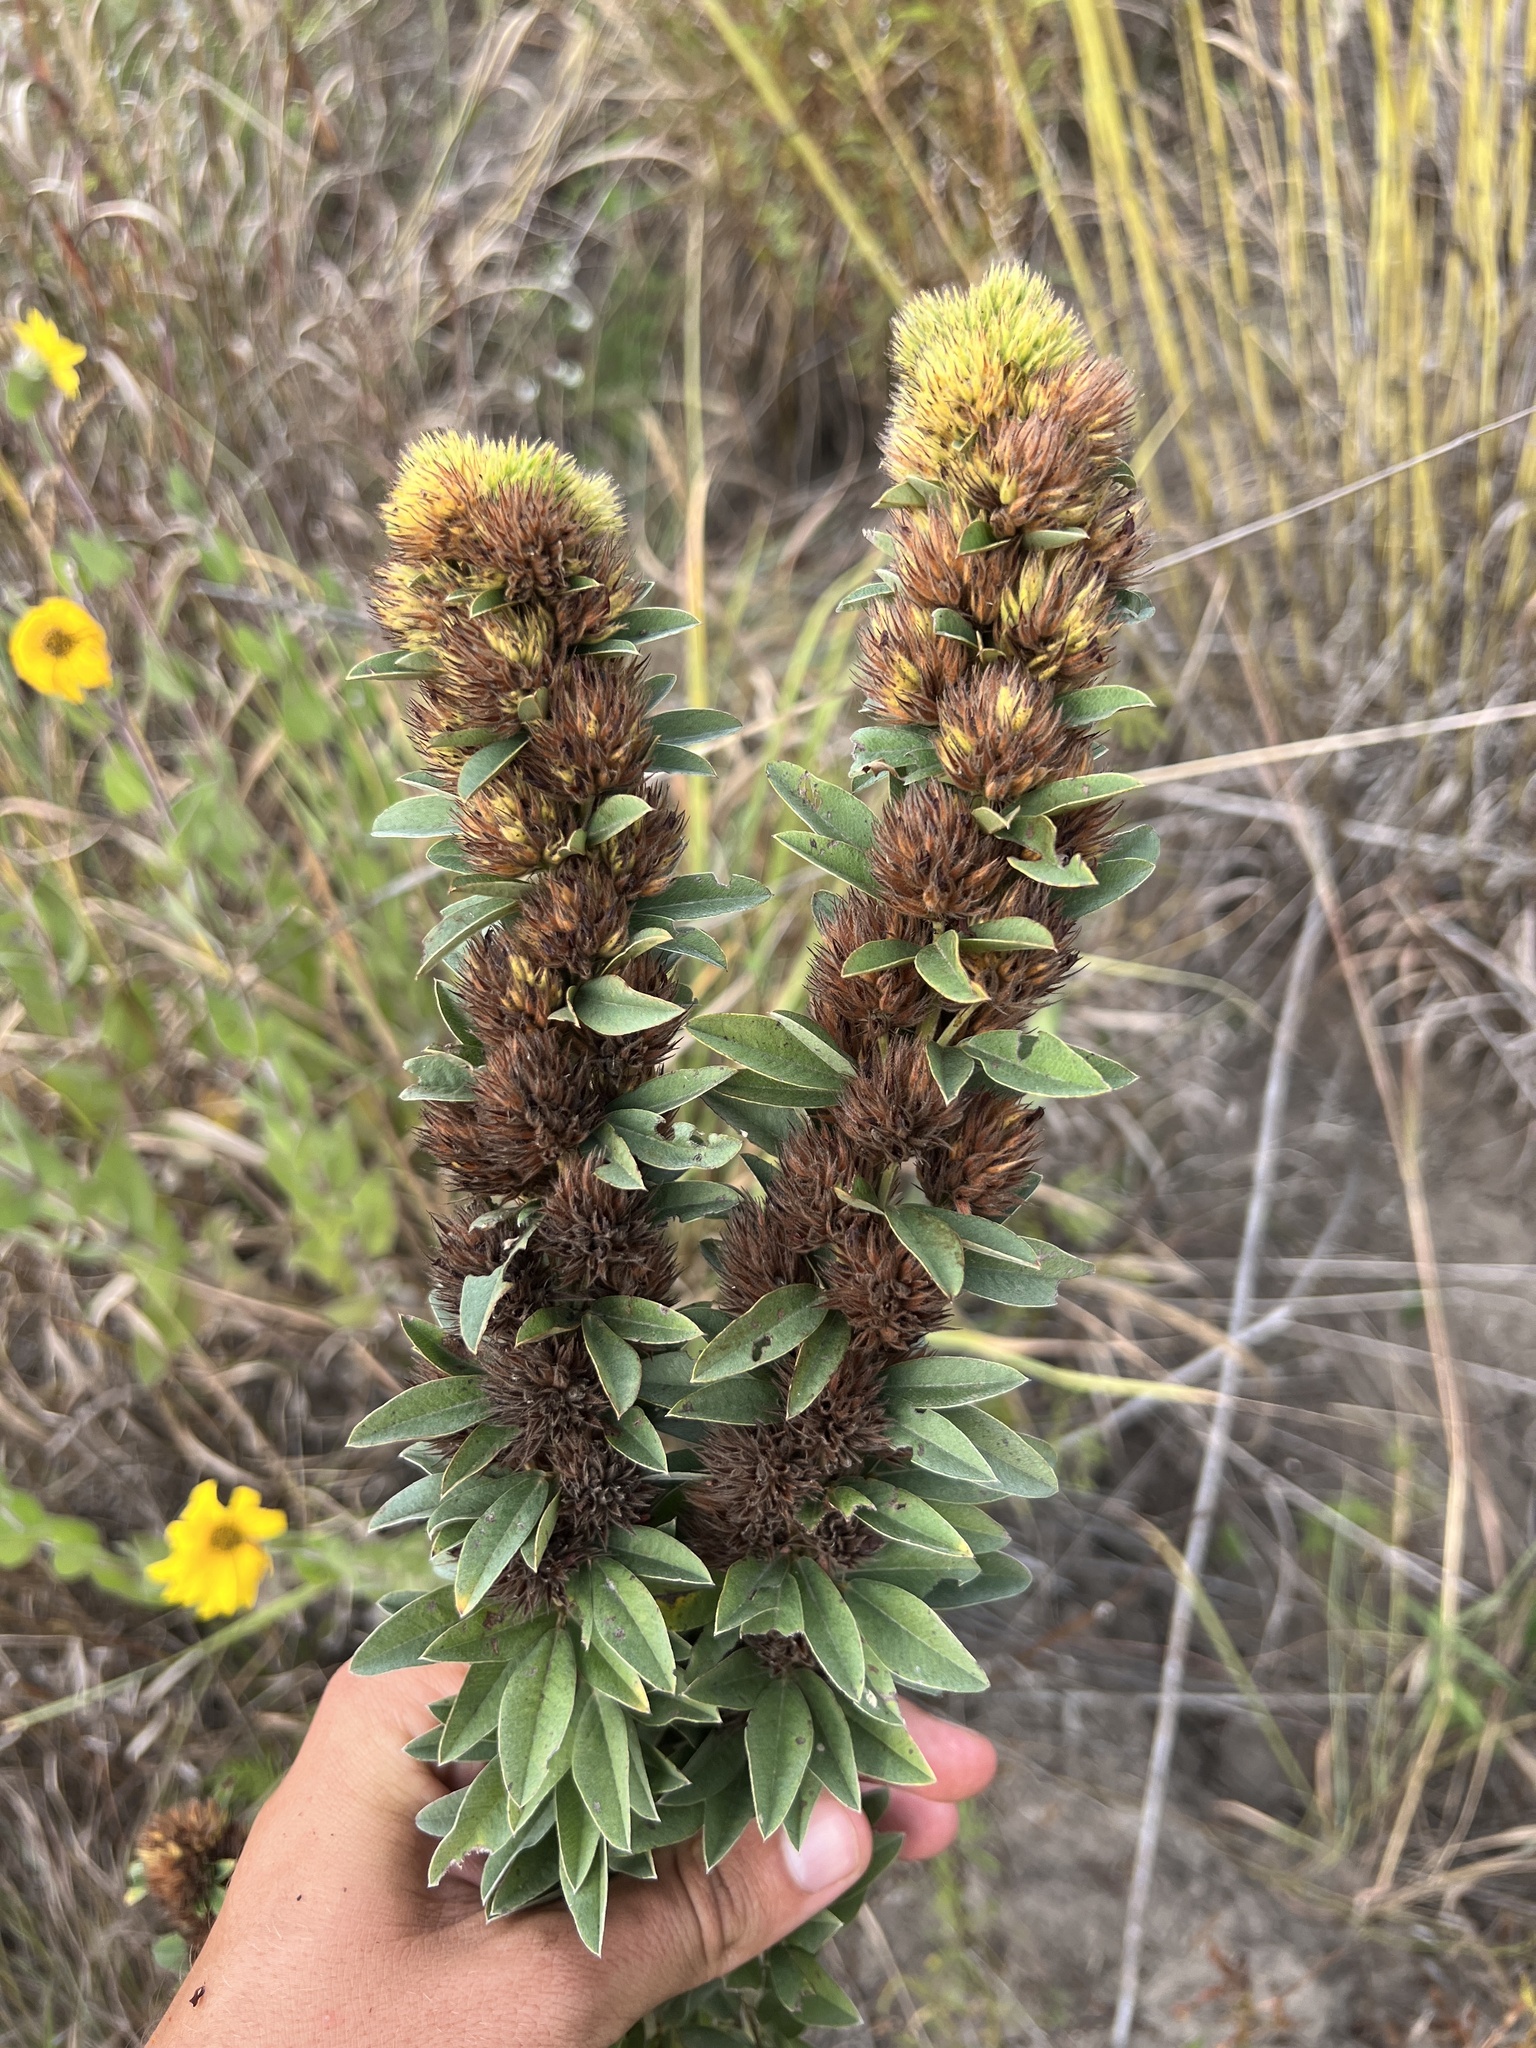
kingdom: Plantae
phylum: Tracheophyta
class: Magnoliopsida
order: Fabales
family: Fabaceae
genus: Lespedeza
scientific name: Lespedeza capitata
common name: Dusty clover
